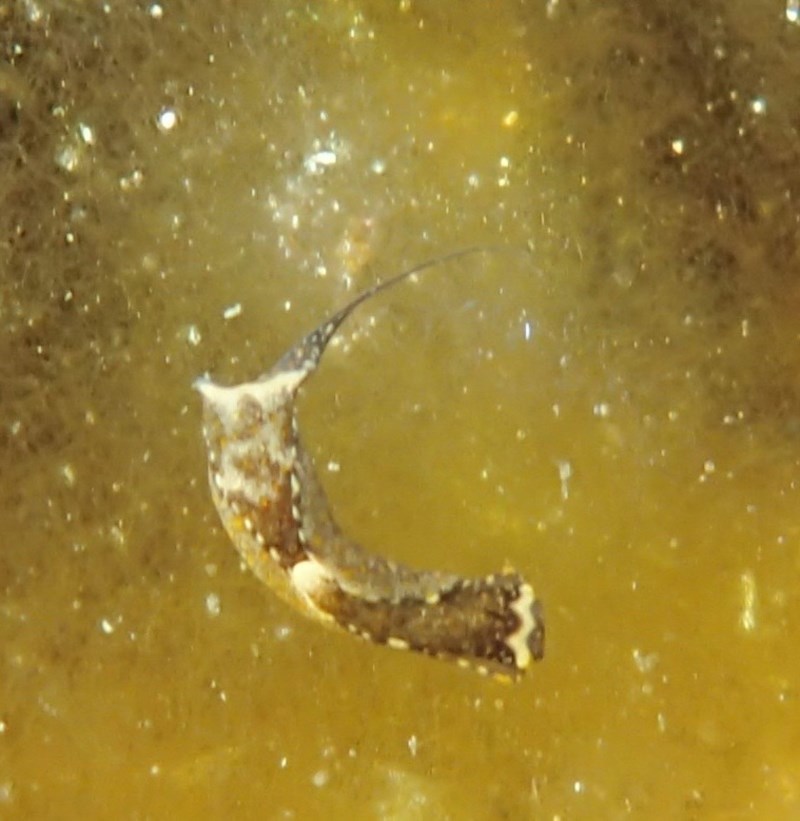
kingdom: Animalia
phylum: Mollusca
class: Gastropoda
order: Cephalaspidea
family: Aglajidae
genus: Biuve
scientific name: Biuve fulvipunctata
